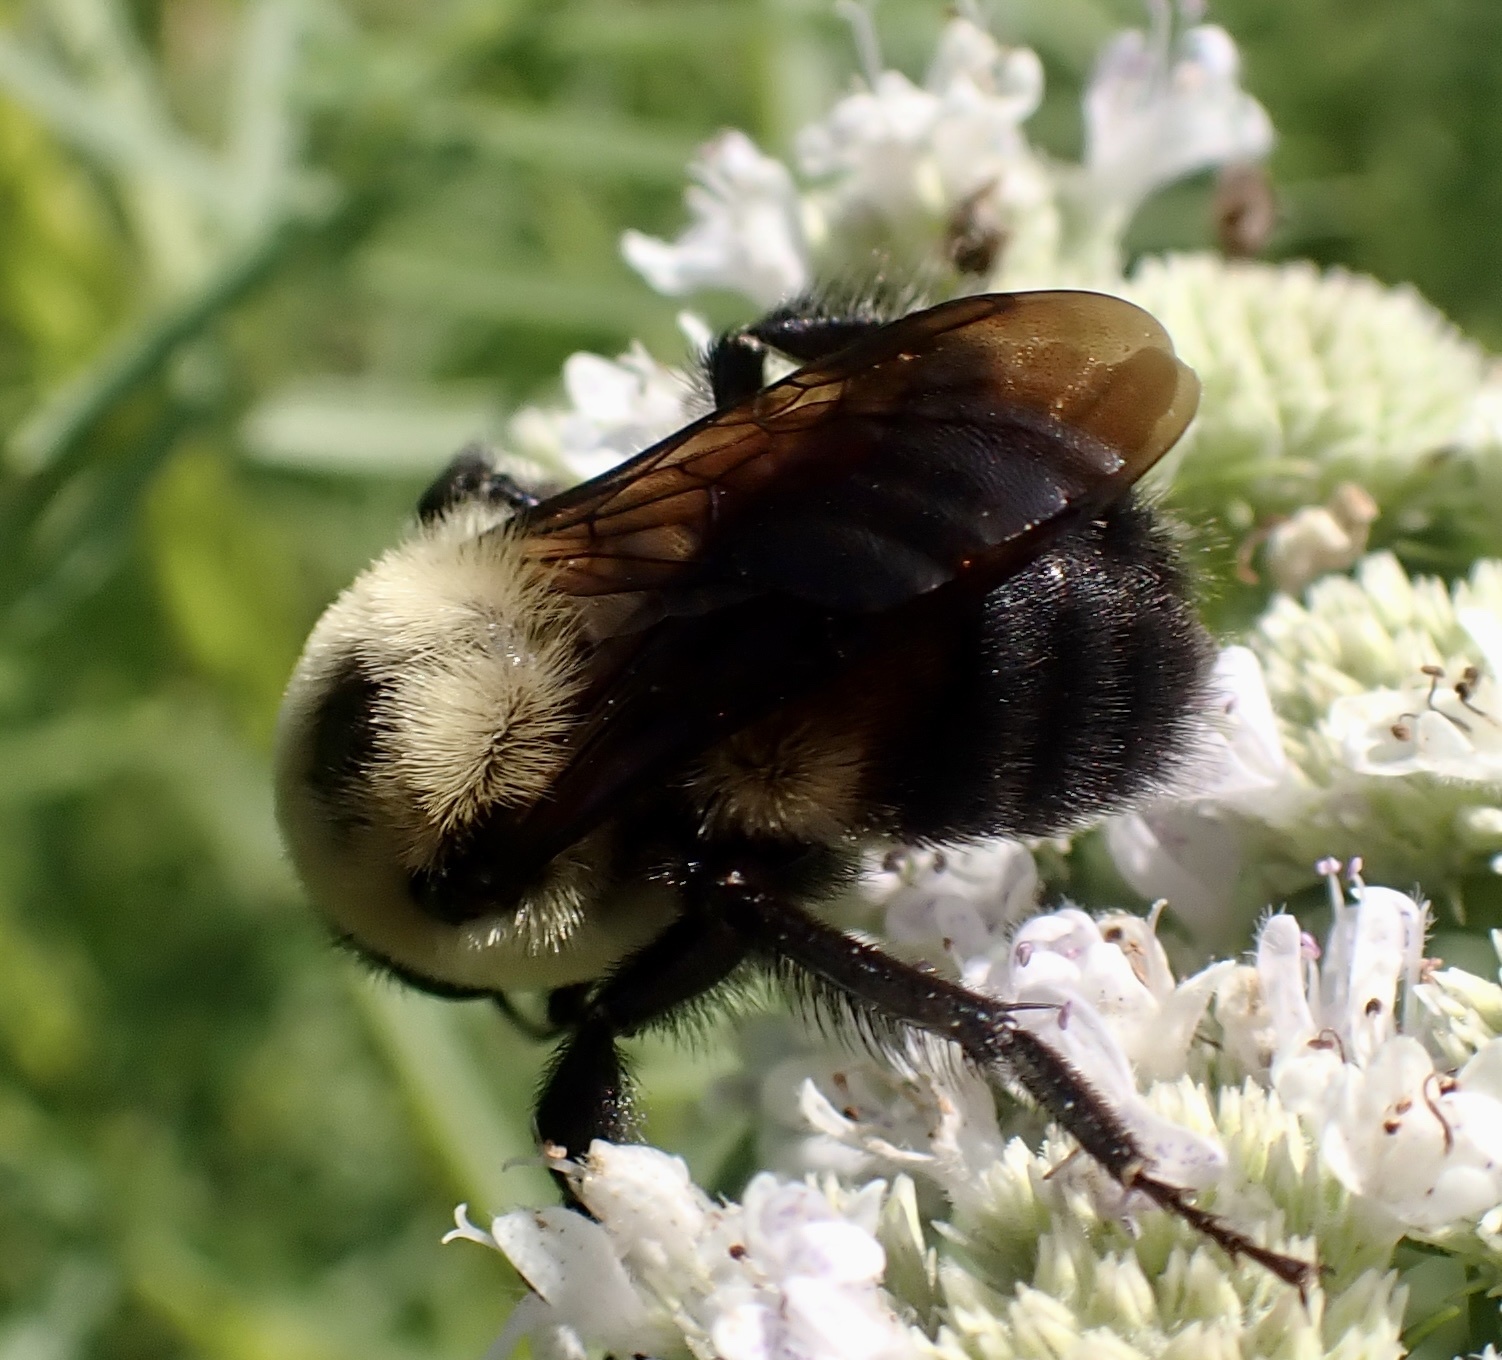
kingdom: Animalia
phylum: Arthropoda
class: Insecta
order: Hymenoptera
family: Apidae
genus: Bombus
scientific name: Bombus griseocollis
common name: Brown-belted bumble bee
